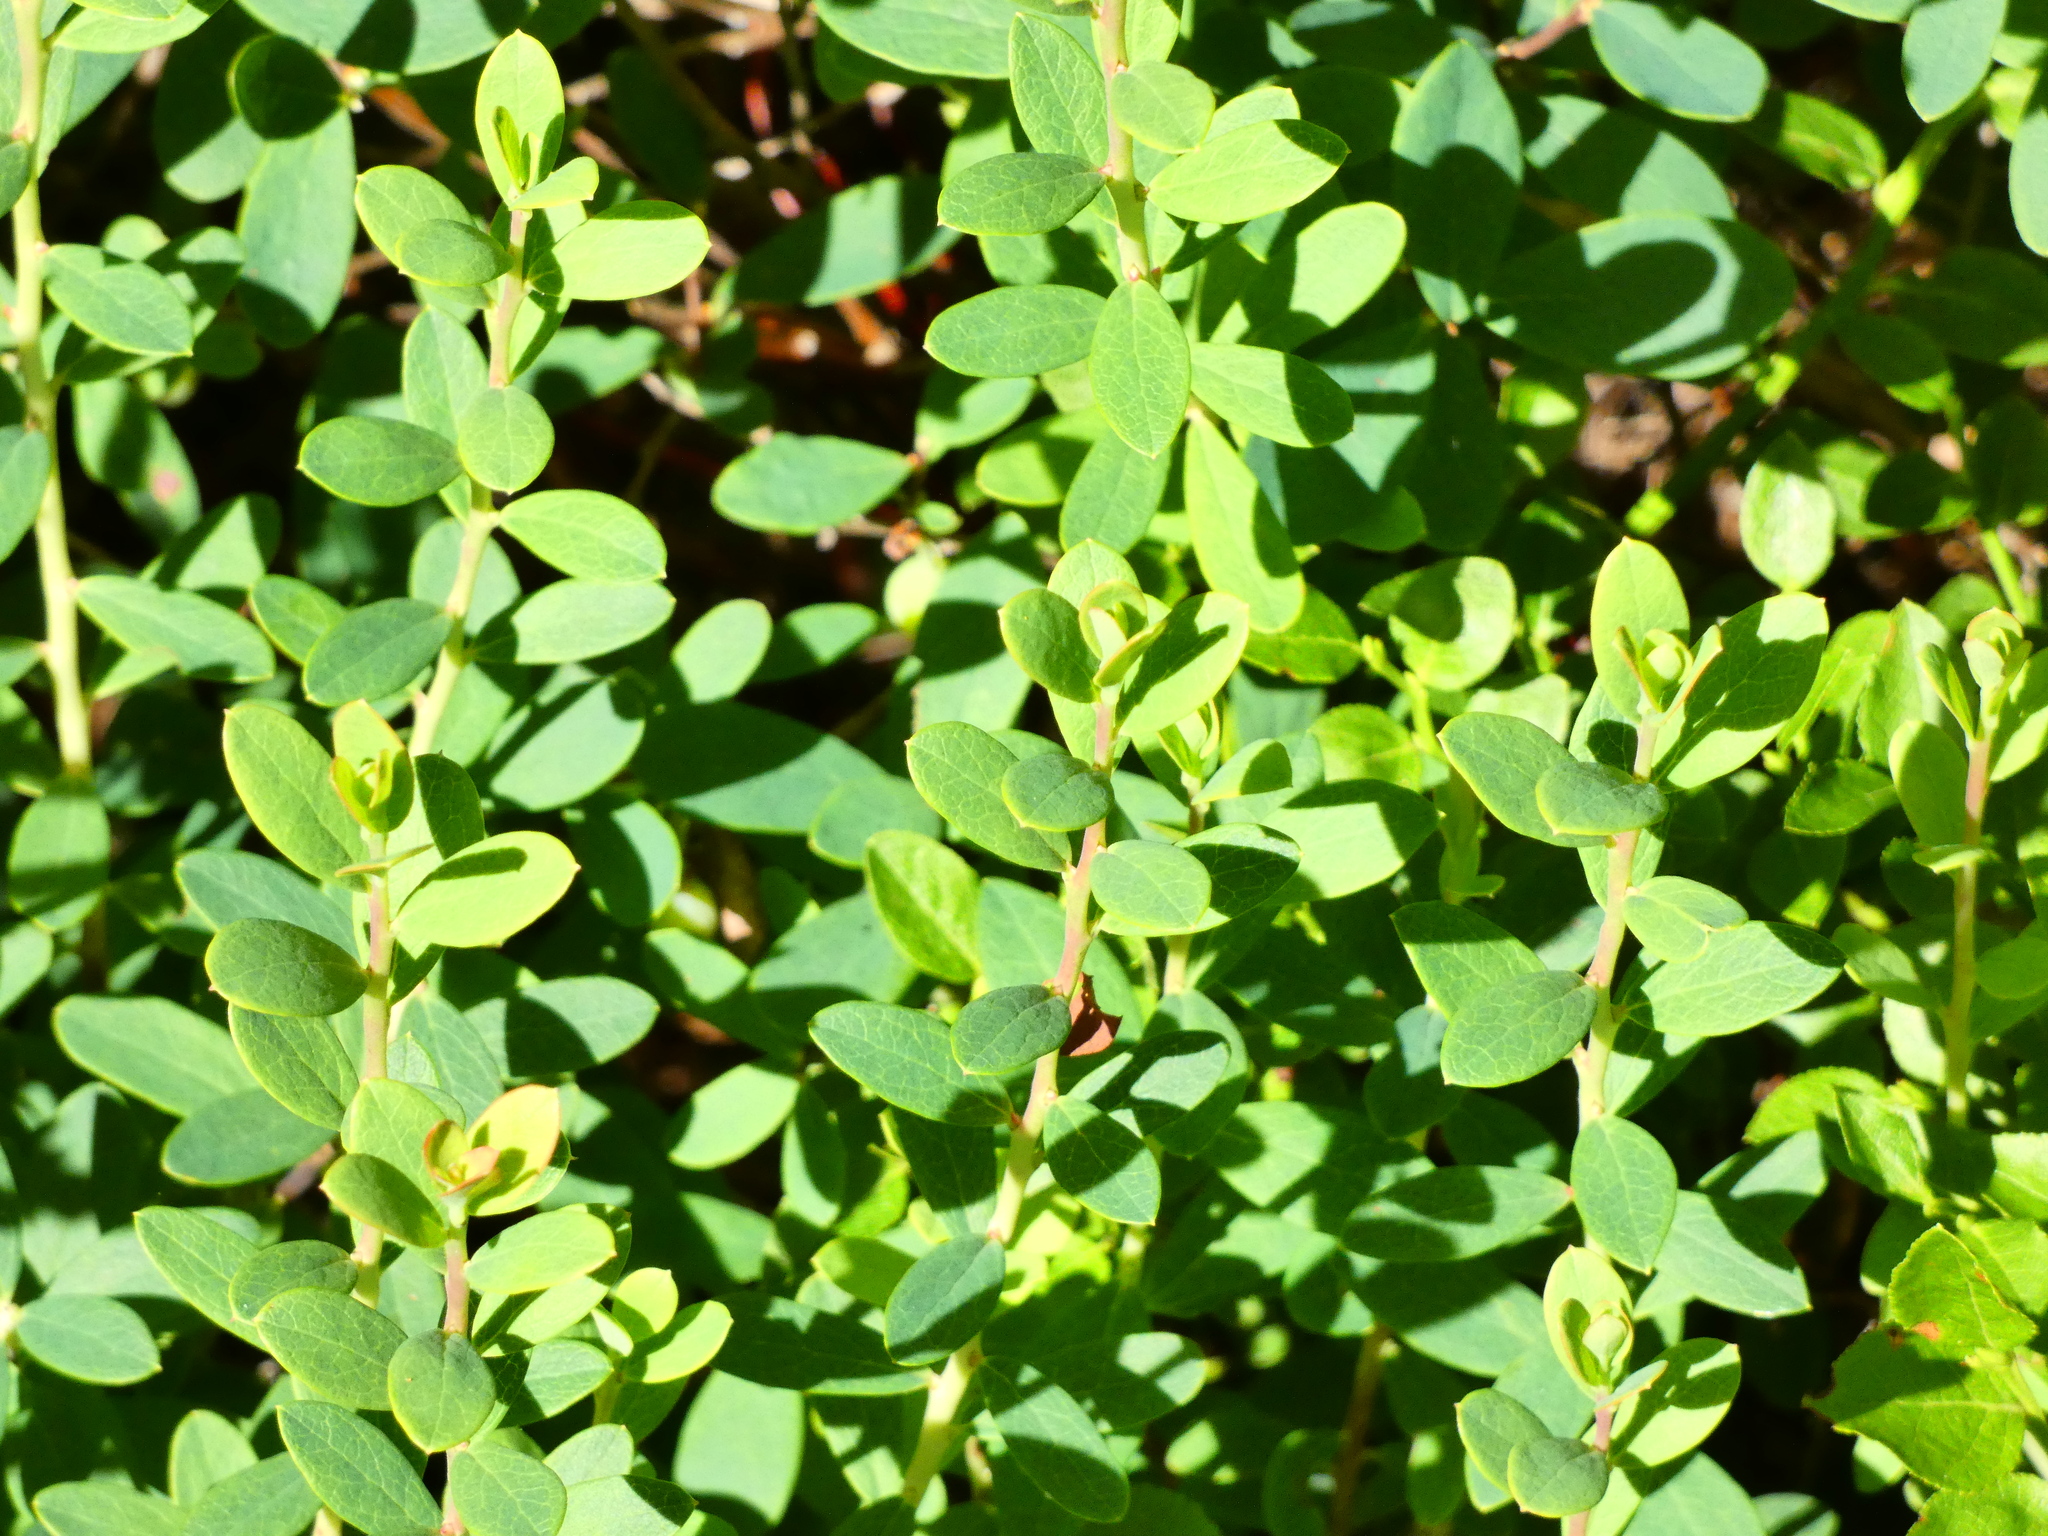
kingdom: Plantae
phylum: Tracheophyta
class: Magnoliopsida
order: Ericales
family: Ericaceae
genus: Vaccinium
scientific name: Vaccinium uliginosum
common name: Bog bilberry
